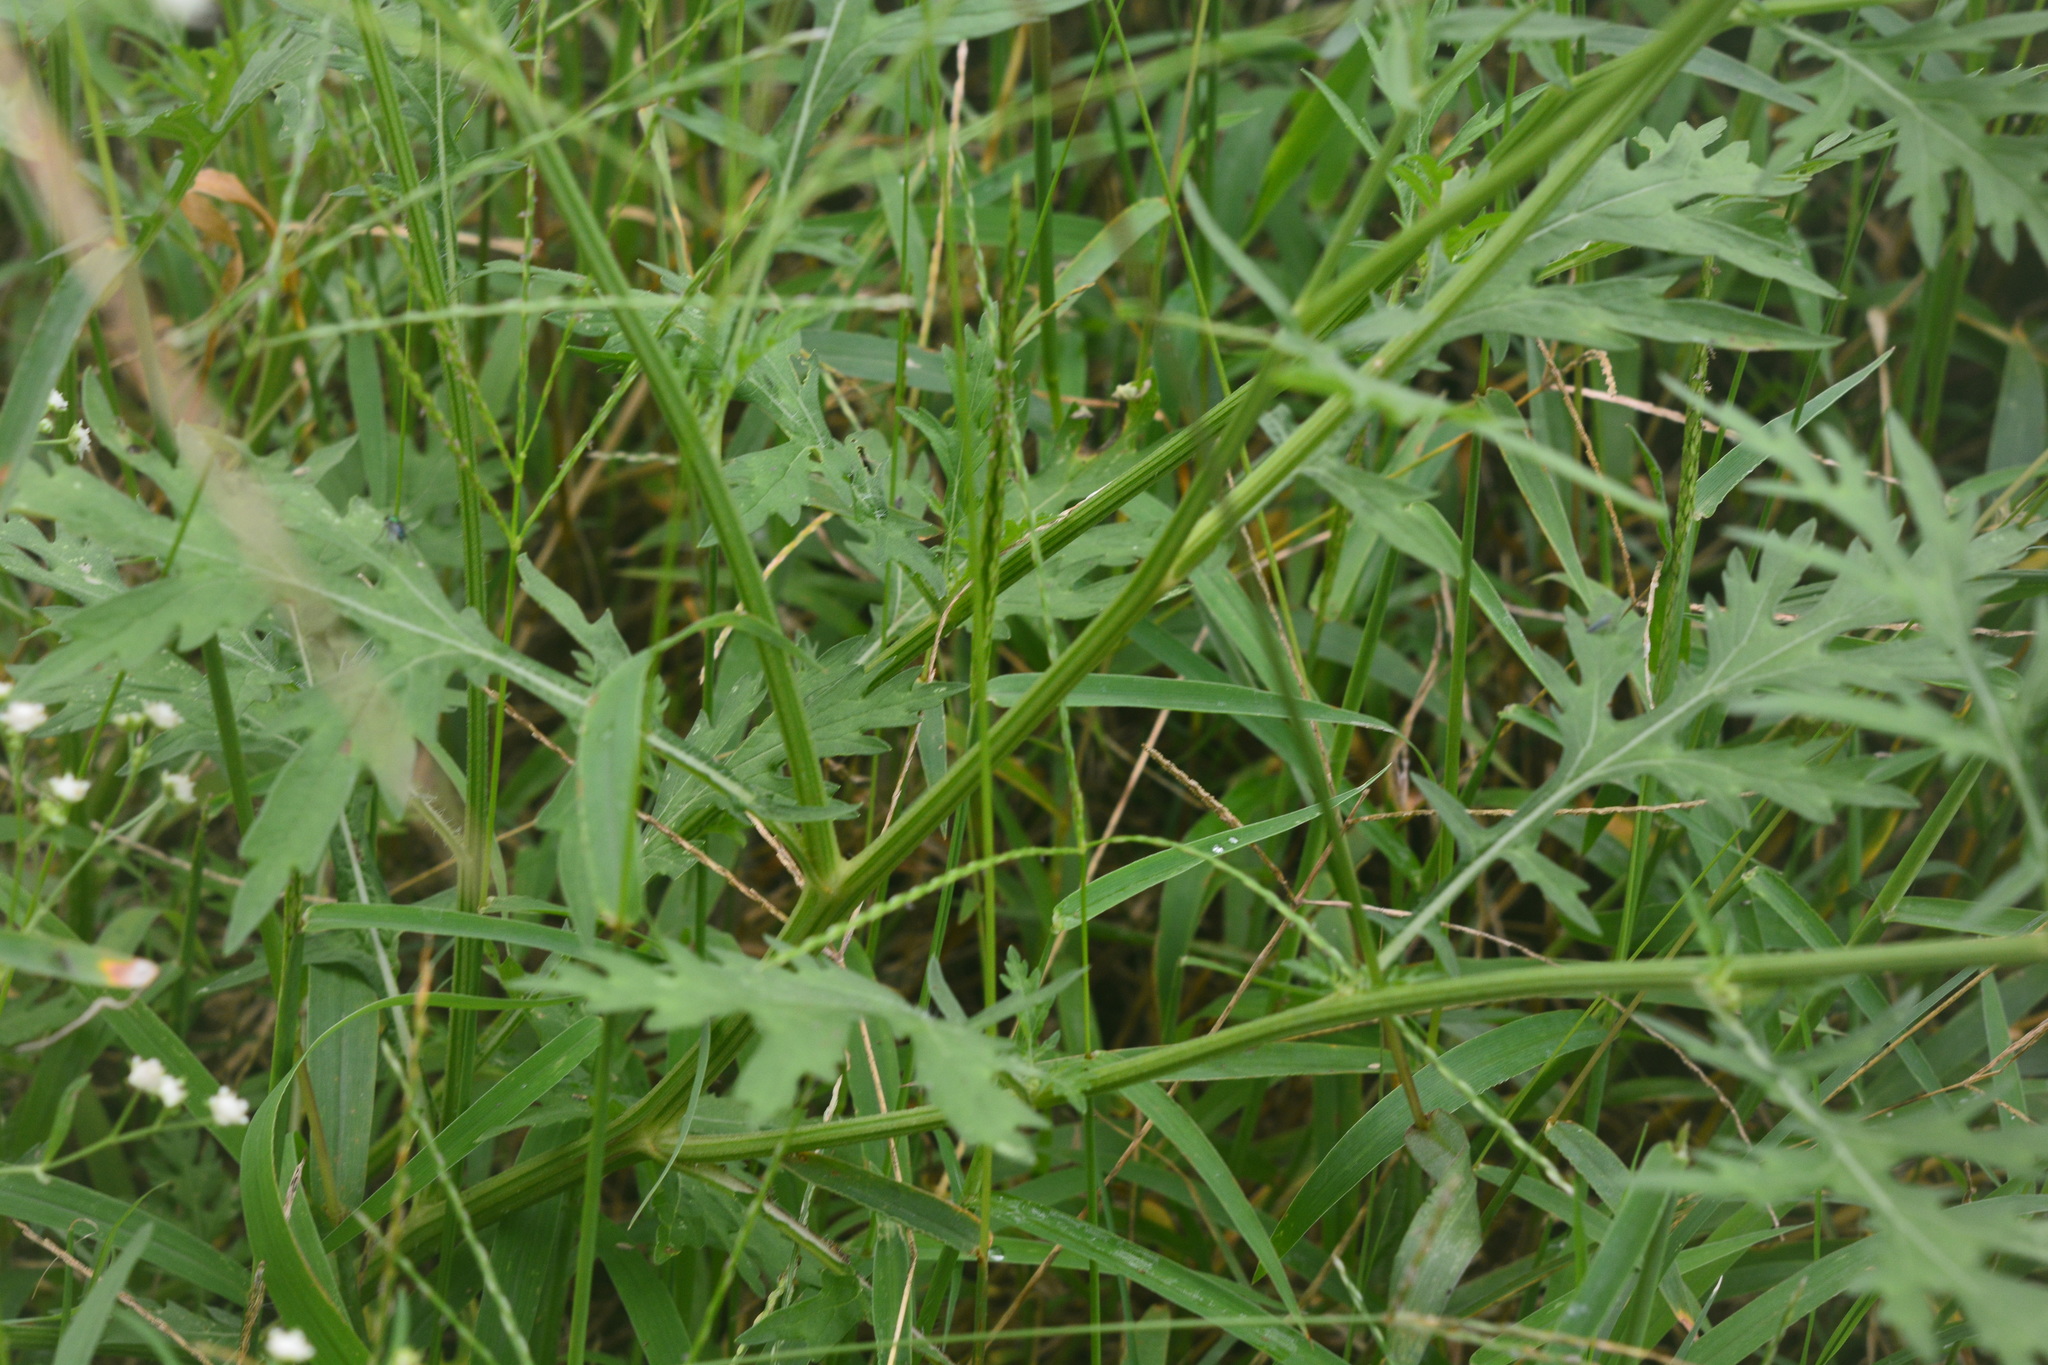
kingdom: Plantae
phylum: Tracheophyta
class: Magnoliopsida
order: Asterales
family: Asteraceae
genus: Parthenium
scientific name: Parthenium hysterophorus
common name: Santa maria feverfew
